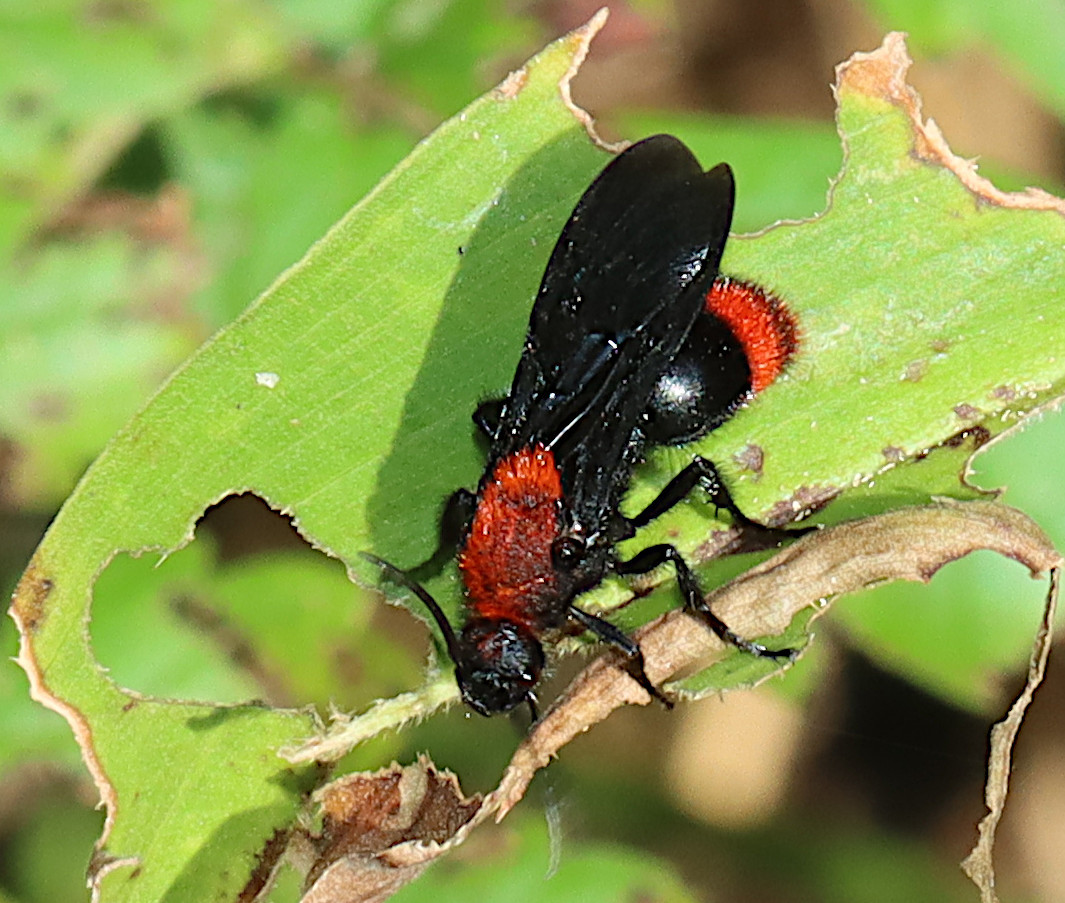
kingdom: Animalia
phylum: Arthropoda
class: Insecta
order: Hymenoptera
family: Mutillidae
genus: Dasymutilla
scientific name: Dasymutilla occidentalis
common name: Common eastern velvet ant
